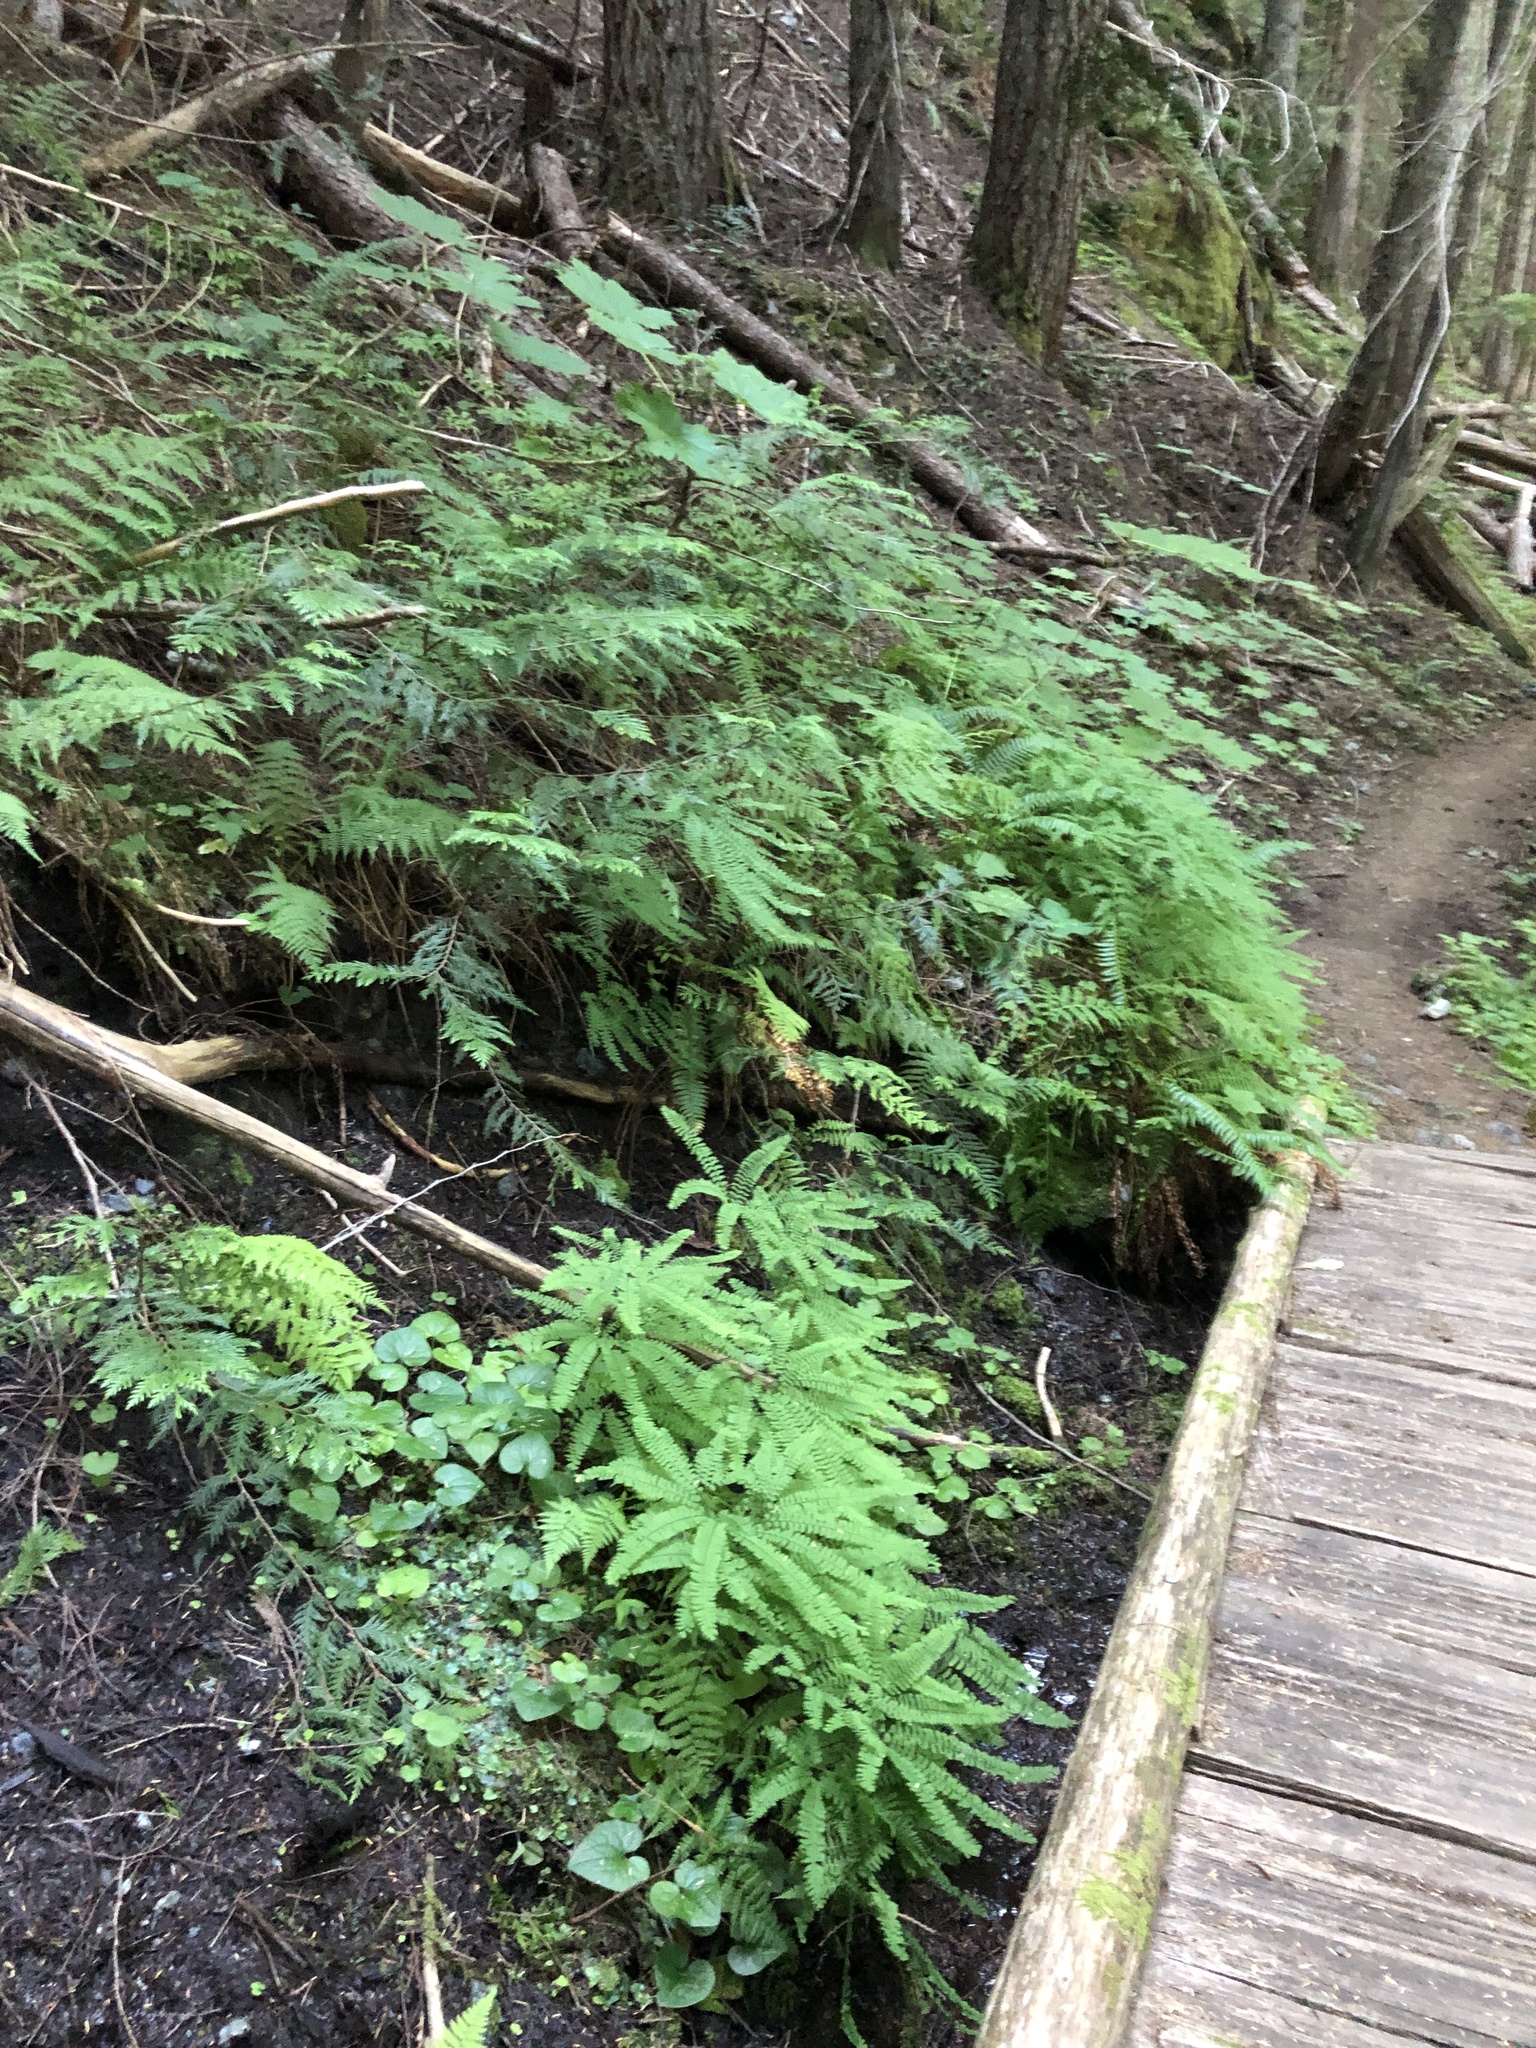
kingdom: Plantae
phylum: Tracheophyta
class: Polypodiopsida
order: Polypodiales
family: Pteridaceae
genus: Adiantum
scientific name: Adiantum aleuticum
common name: Aleutian maidenhair fern
